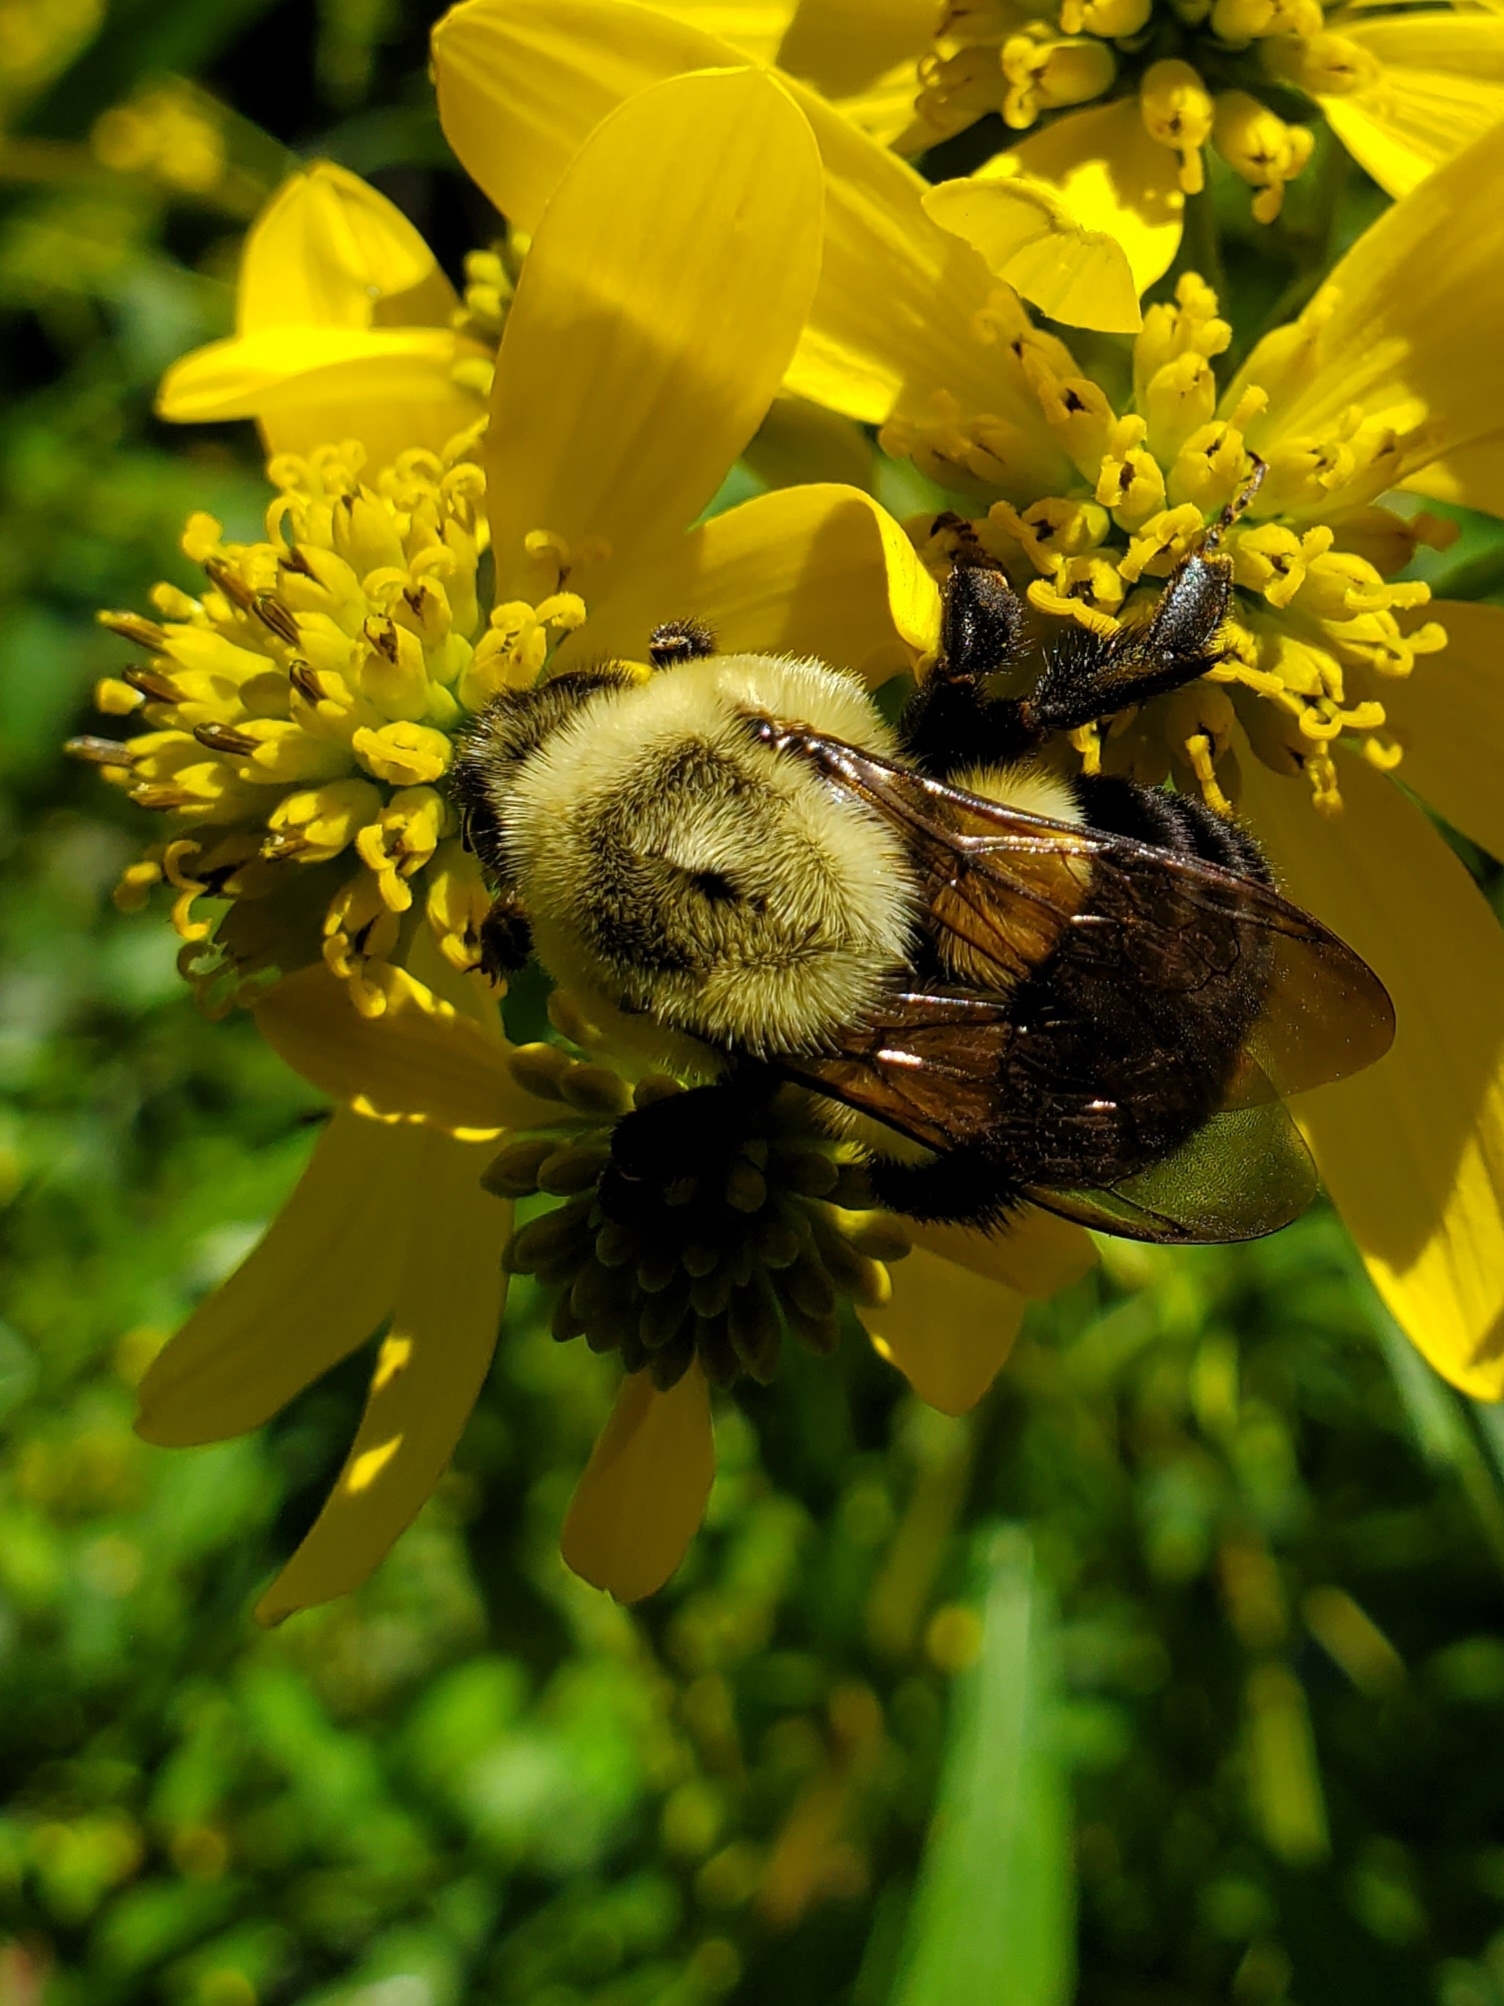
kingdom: Animalia
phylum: Arthropoda
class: Insecta
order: Hymenoptera
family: Apidae
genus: Bombus
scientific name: Bombus impatiens
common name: Common eastern bumble bee
